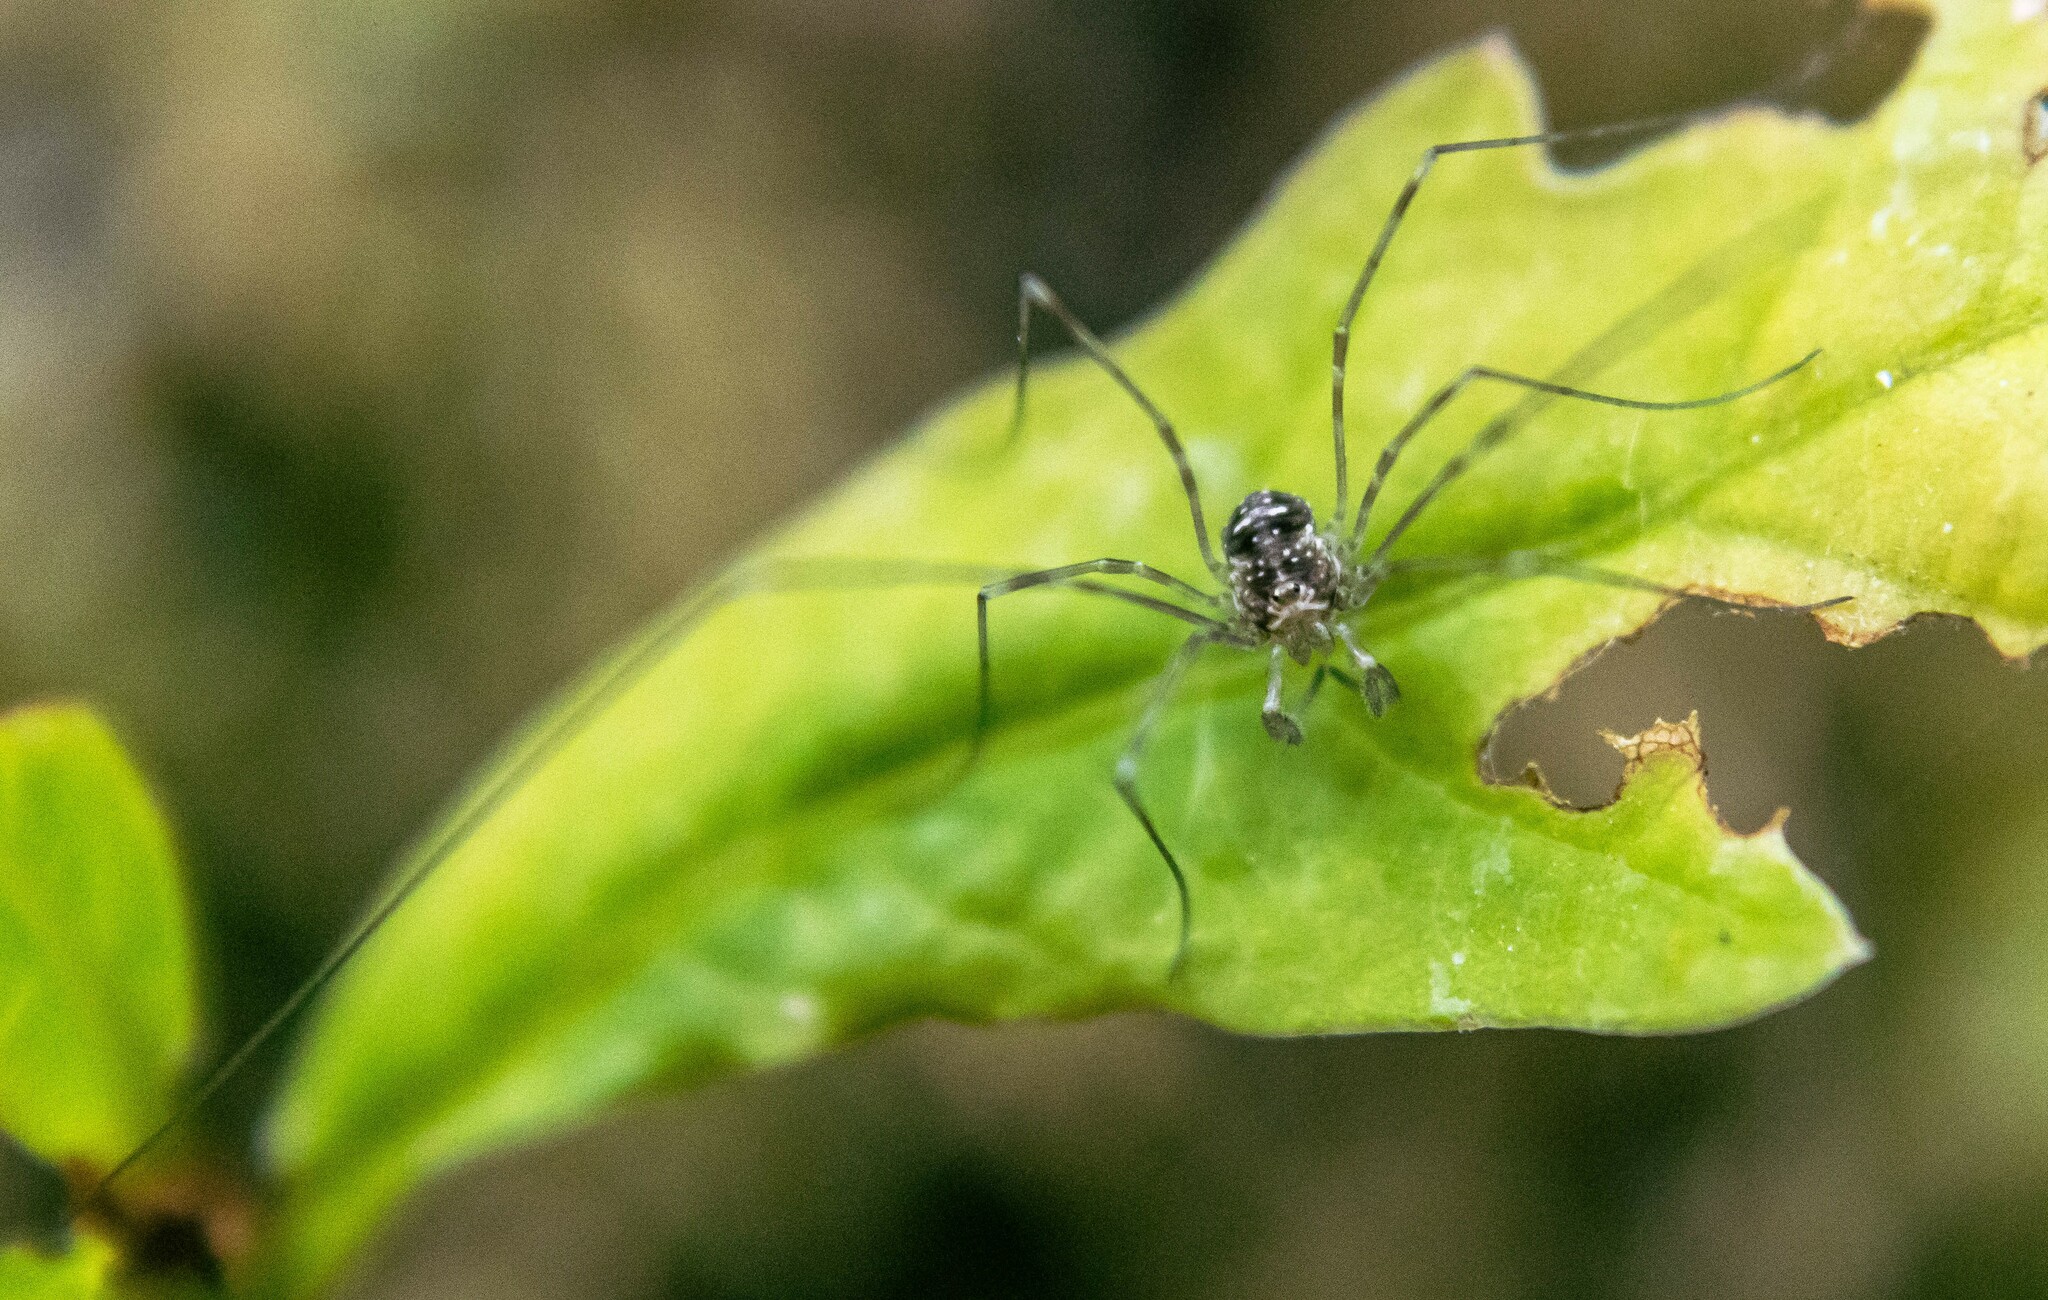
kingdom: Animalia
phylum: Arthropoda
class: Arachnida
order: Opiliones
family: Phalangiidae
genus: Dicranopalpus
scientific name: Dicranopalpus
